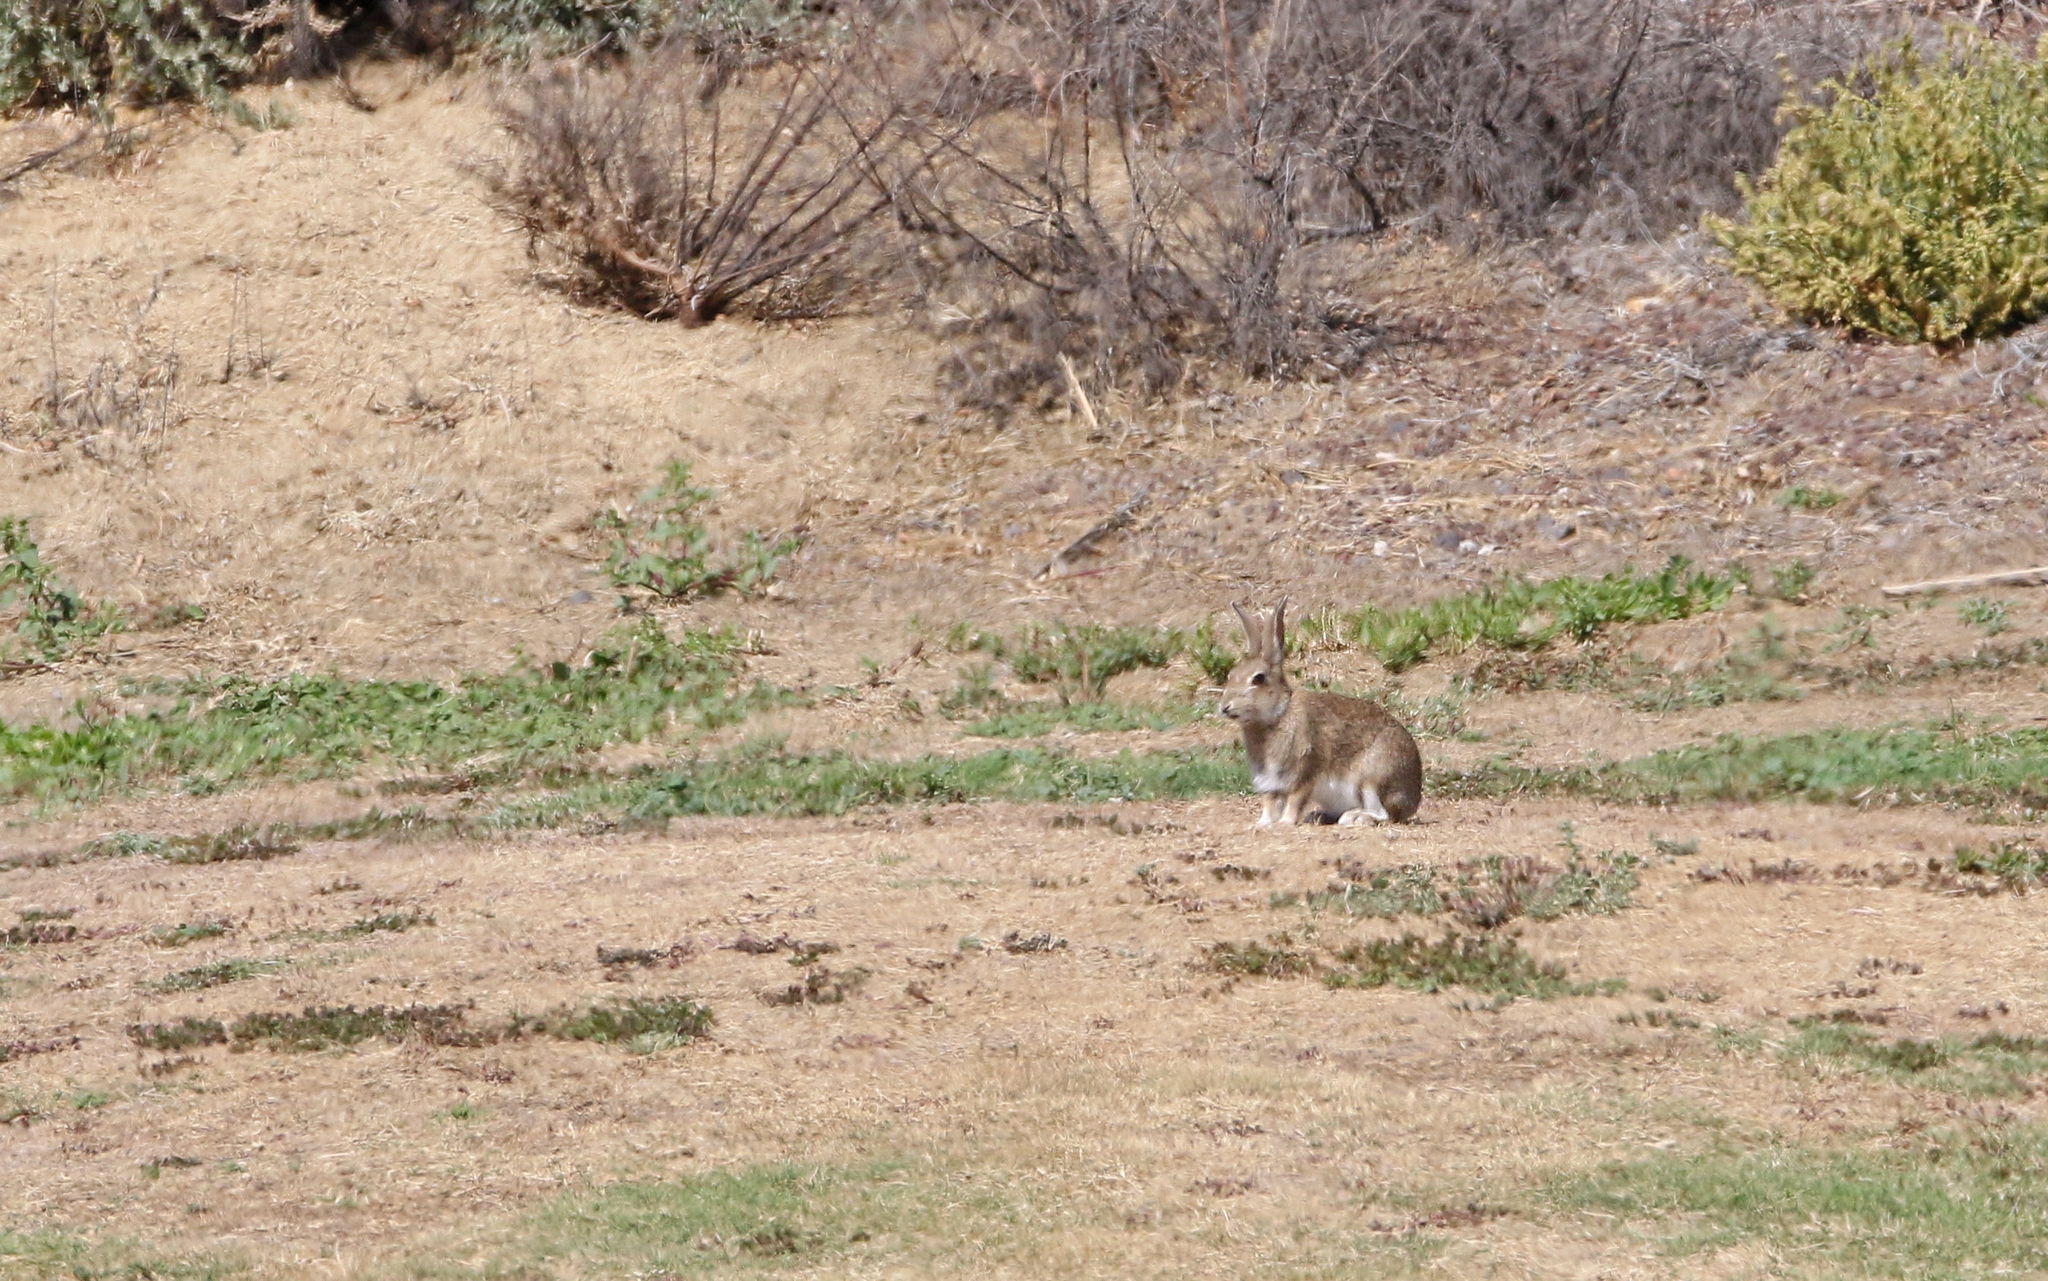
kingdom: Animalia
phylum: Chordata
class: Mammalia
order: Lagomorpha
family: Leporidae
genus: Oryctolagus
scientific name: Oryctolagus cuniculus
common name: European rabbit
